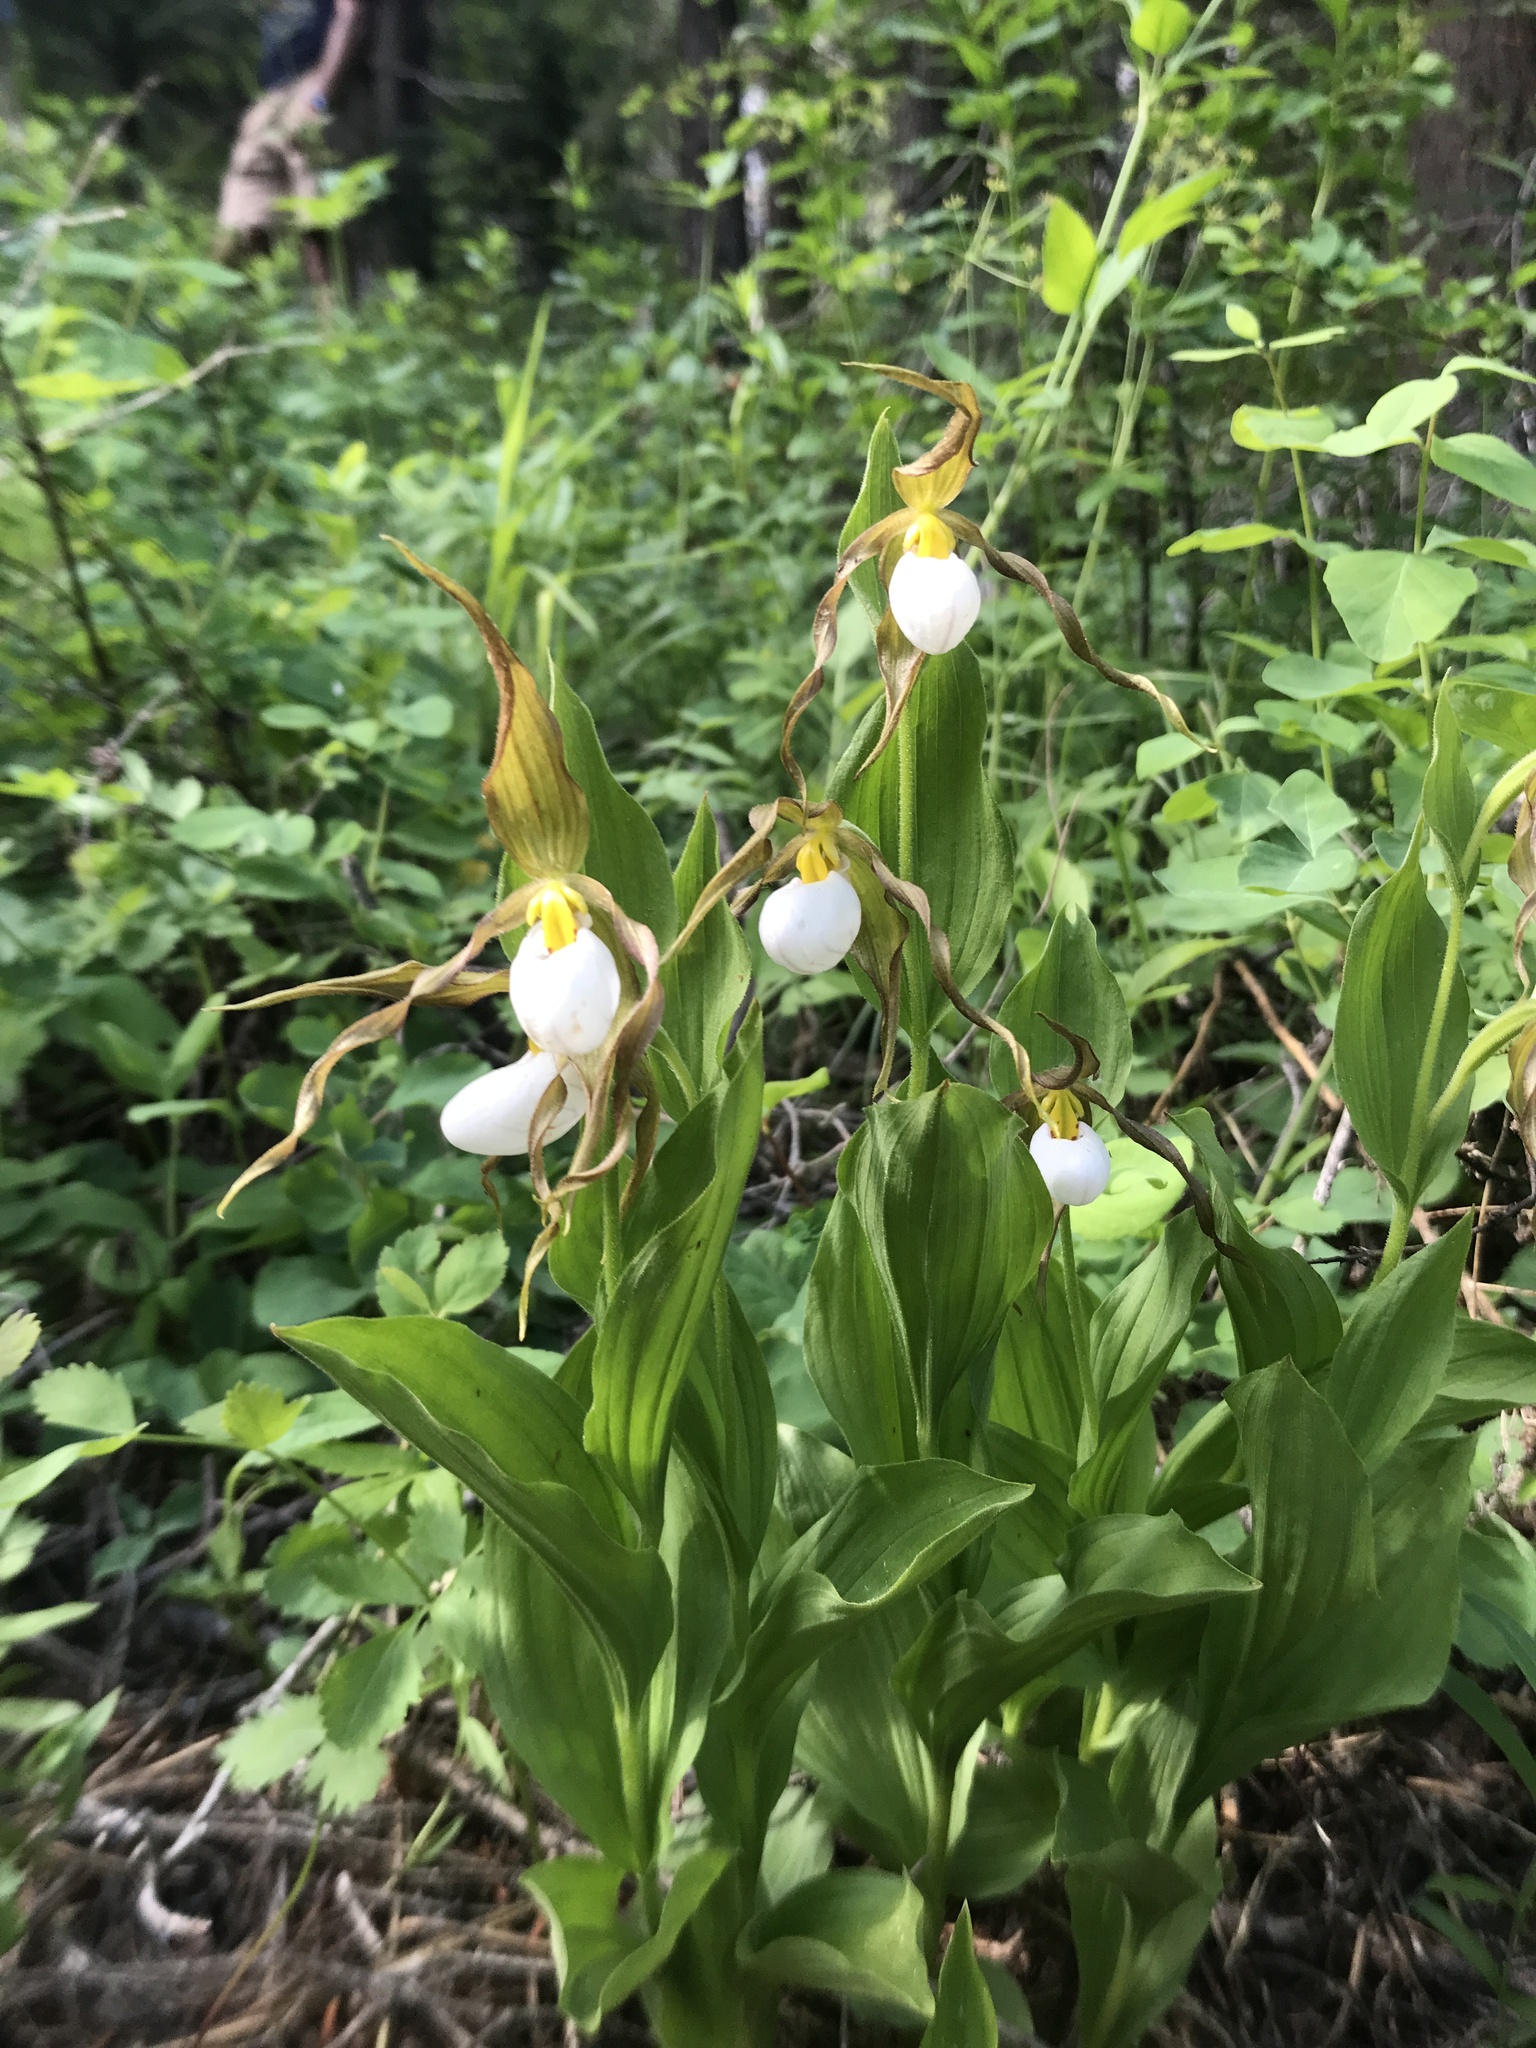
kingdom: Plantae
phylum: Tracheophyta
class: Liliopsida
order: Asparagales
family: Orchidaceae
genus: Cypripedium
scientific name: Cypripedium montanum
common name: Mountain lady's-slipper
